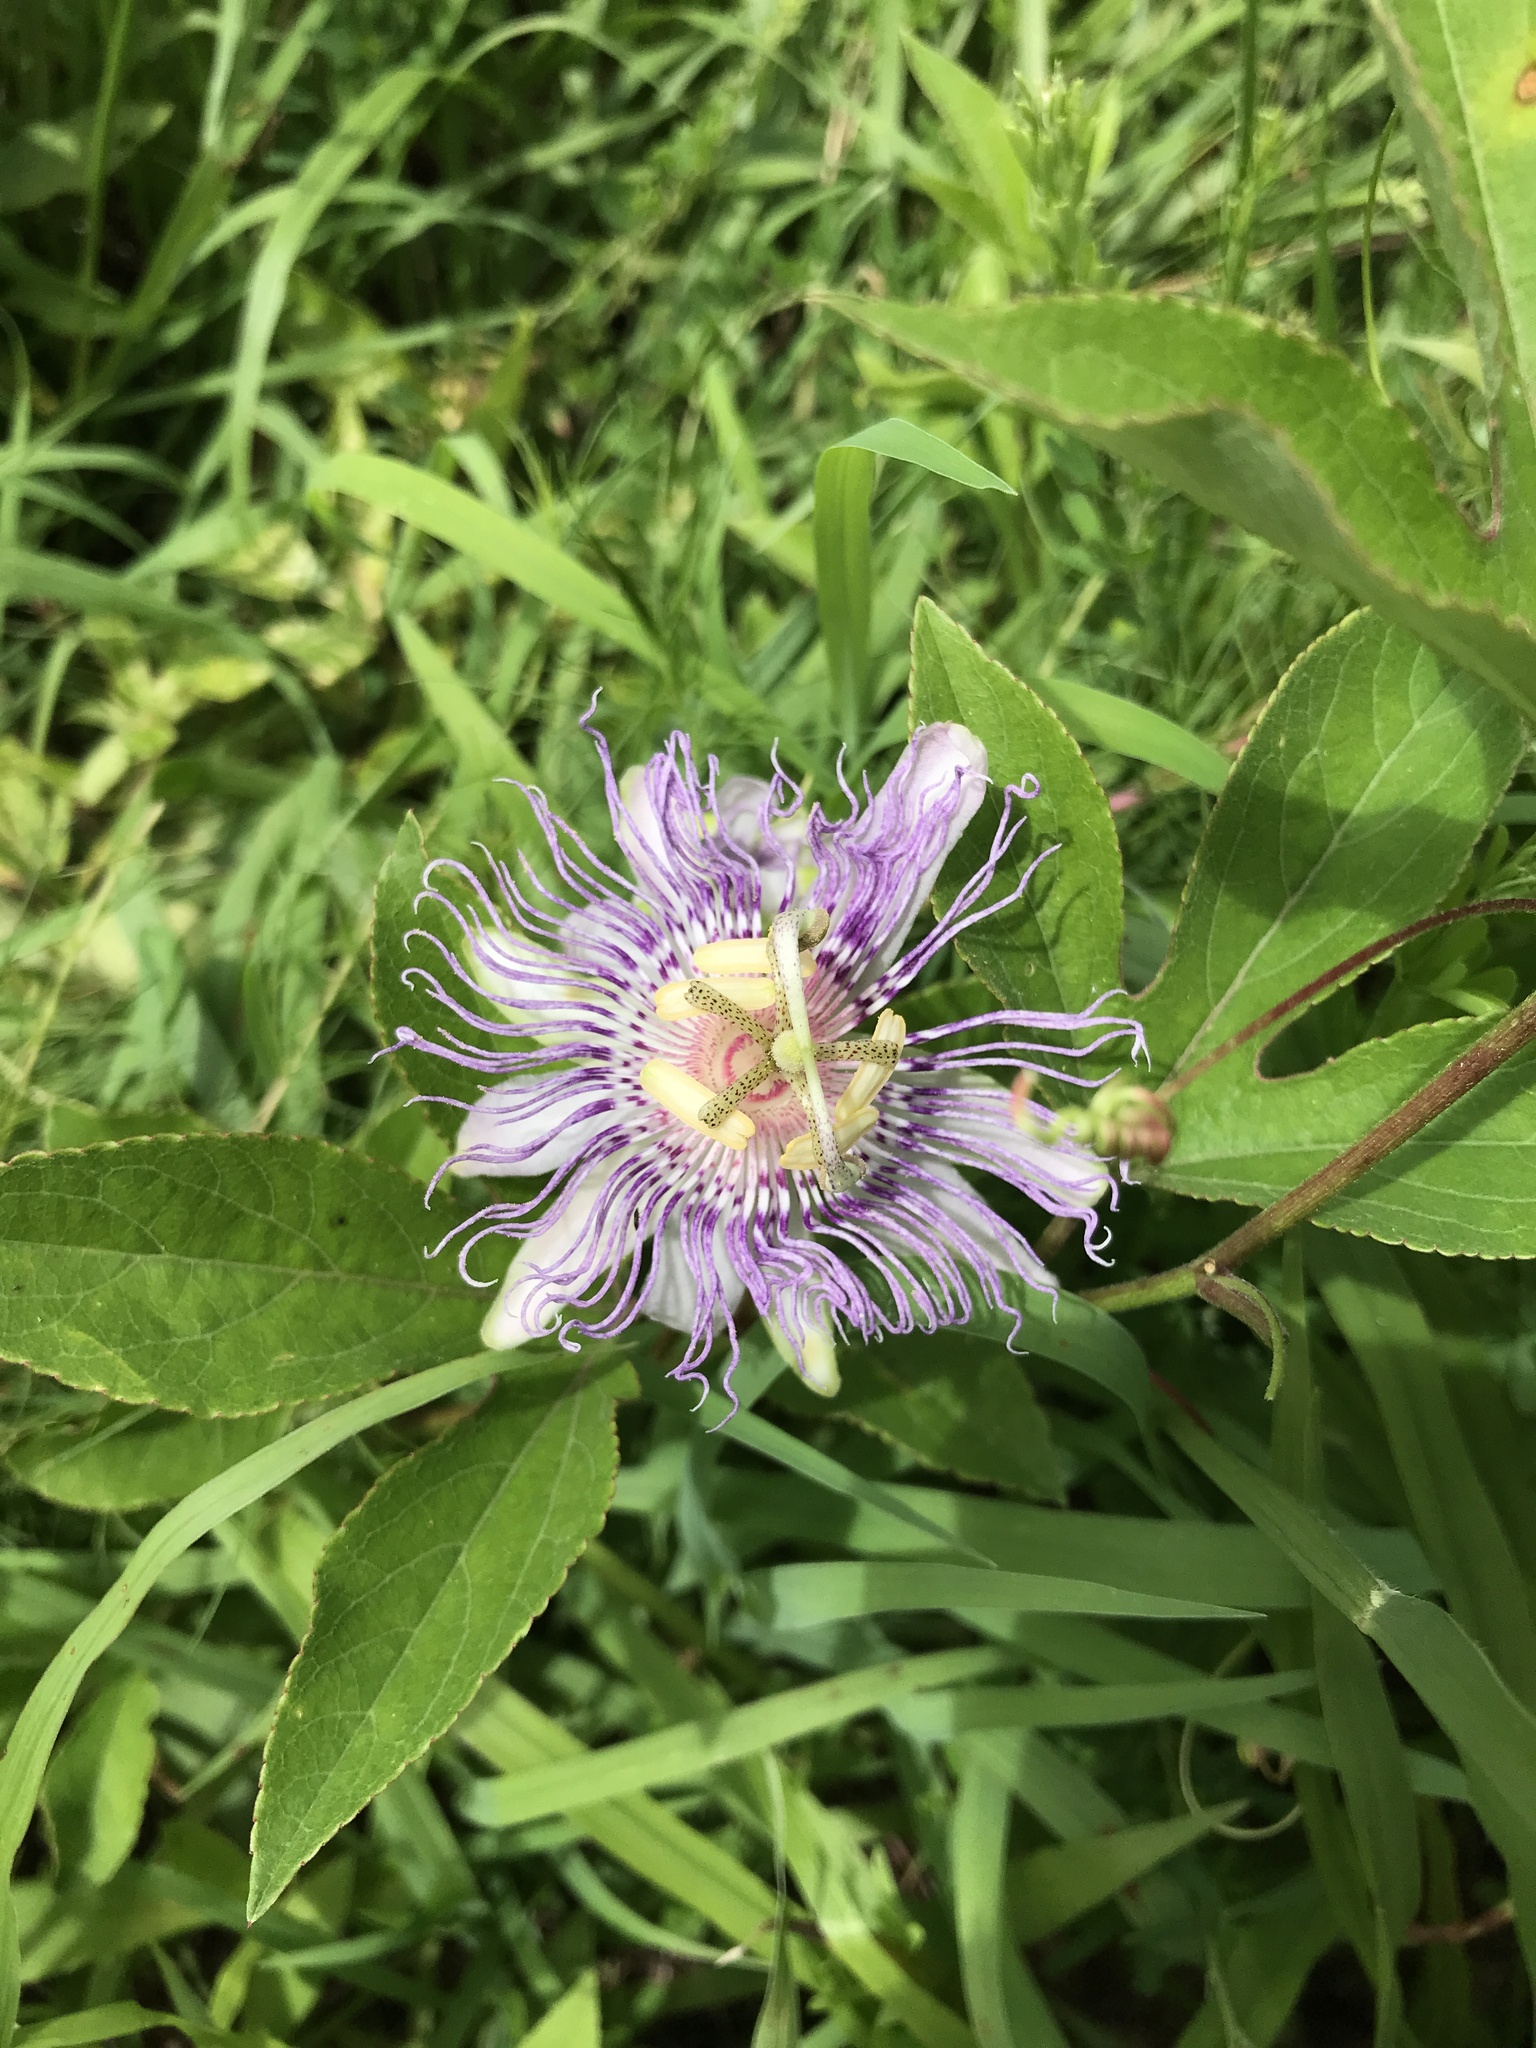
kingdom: Plantae
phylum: Tracheophyta
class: Magnoliopsida
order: Malpighiales
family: Passifloraceae
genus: Passiflora
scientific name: Passiflora incarnata
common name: Apricot-vine
